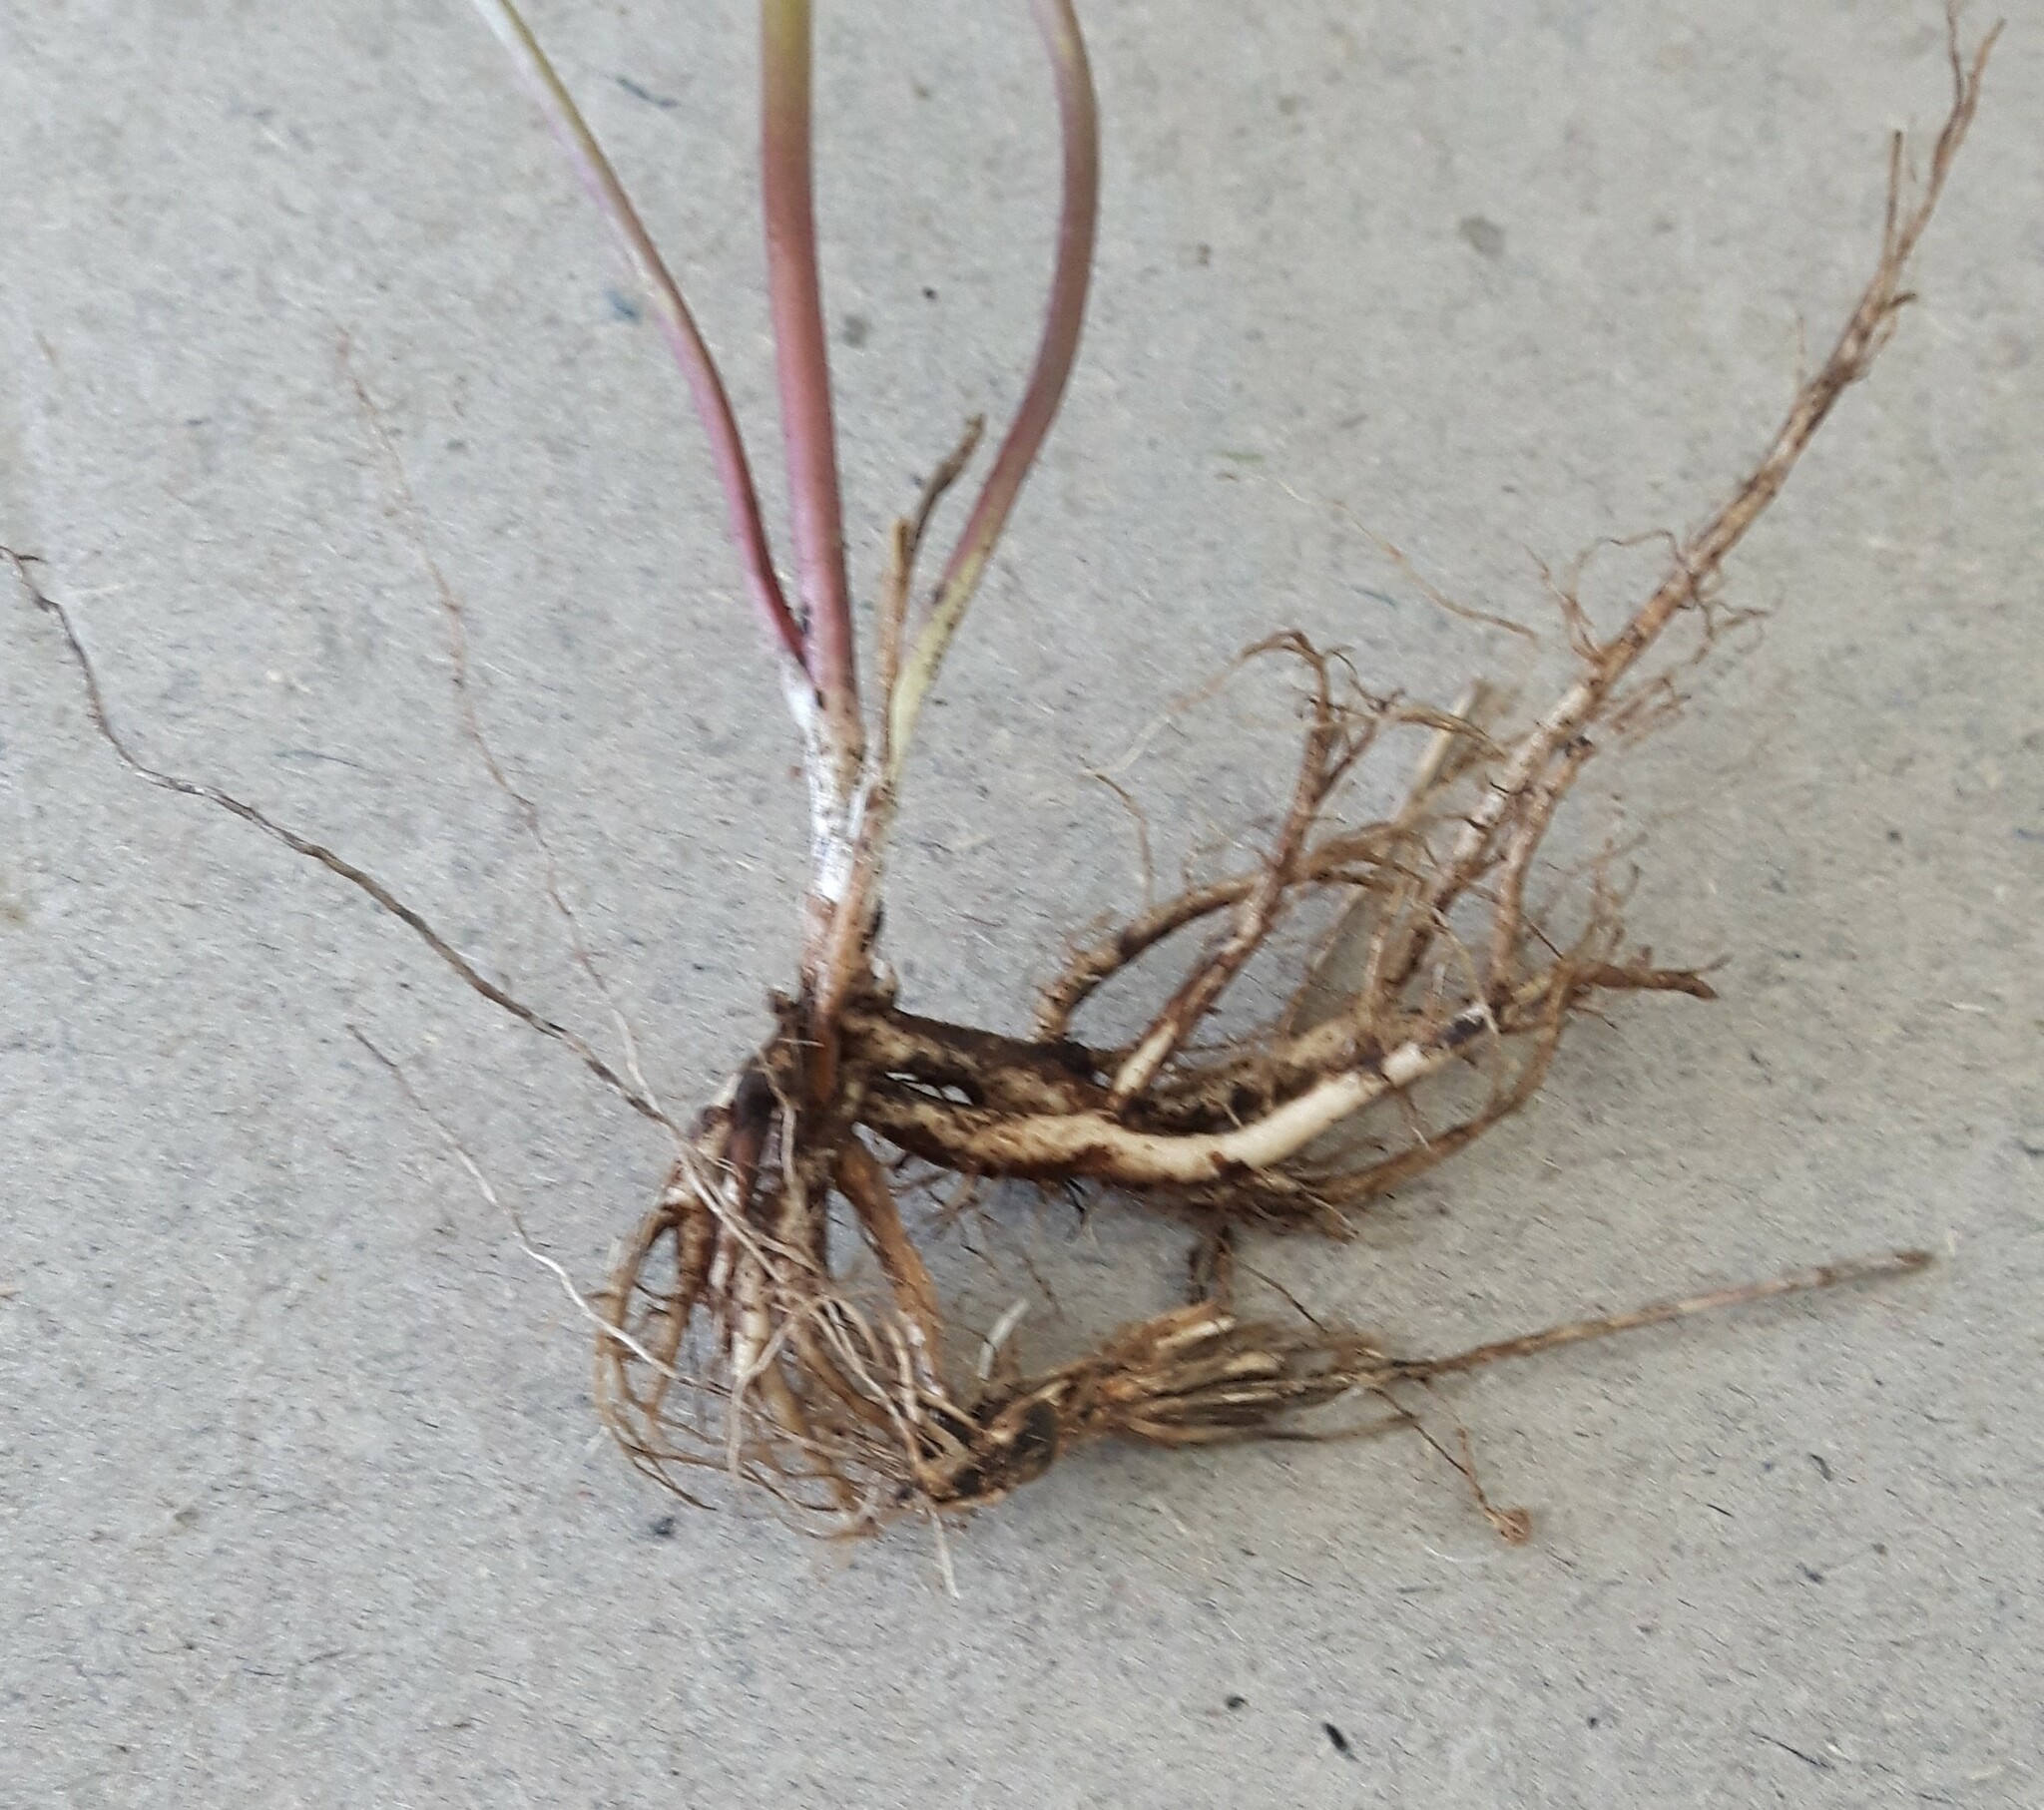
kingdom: Plantae
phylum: Tracheophyta
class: Magnoliopsida
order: Ranunculales
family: Ranunculaceae
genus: Delphinium
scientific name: Delphinium bicolor
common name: Low larkspur
